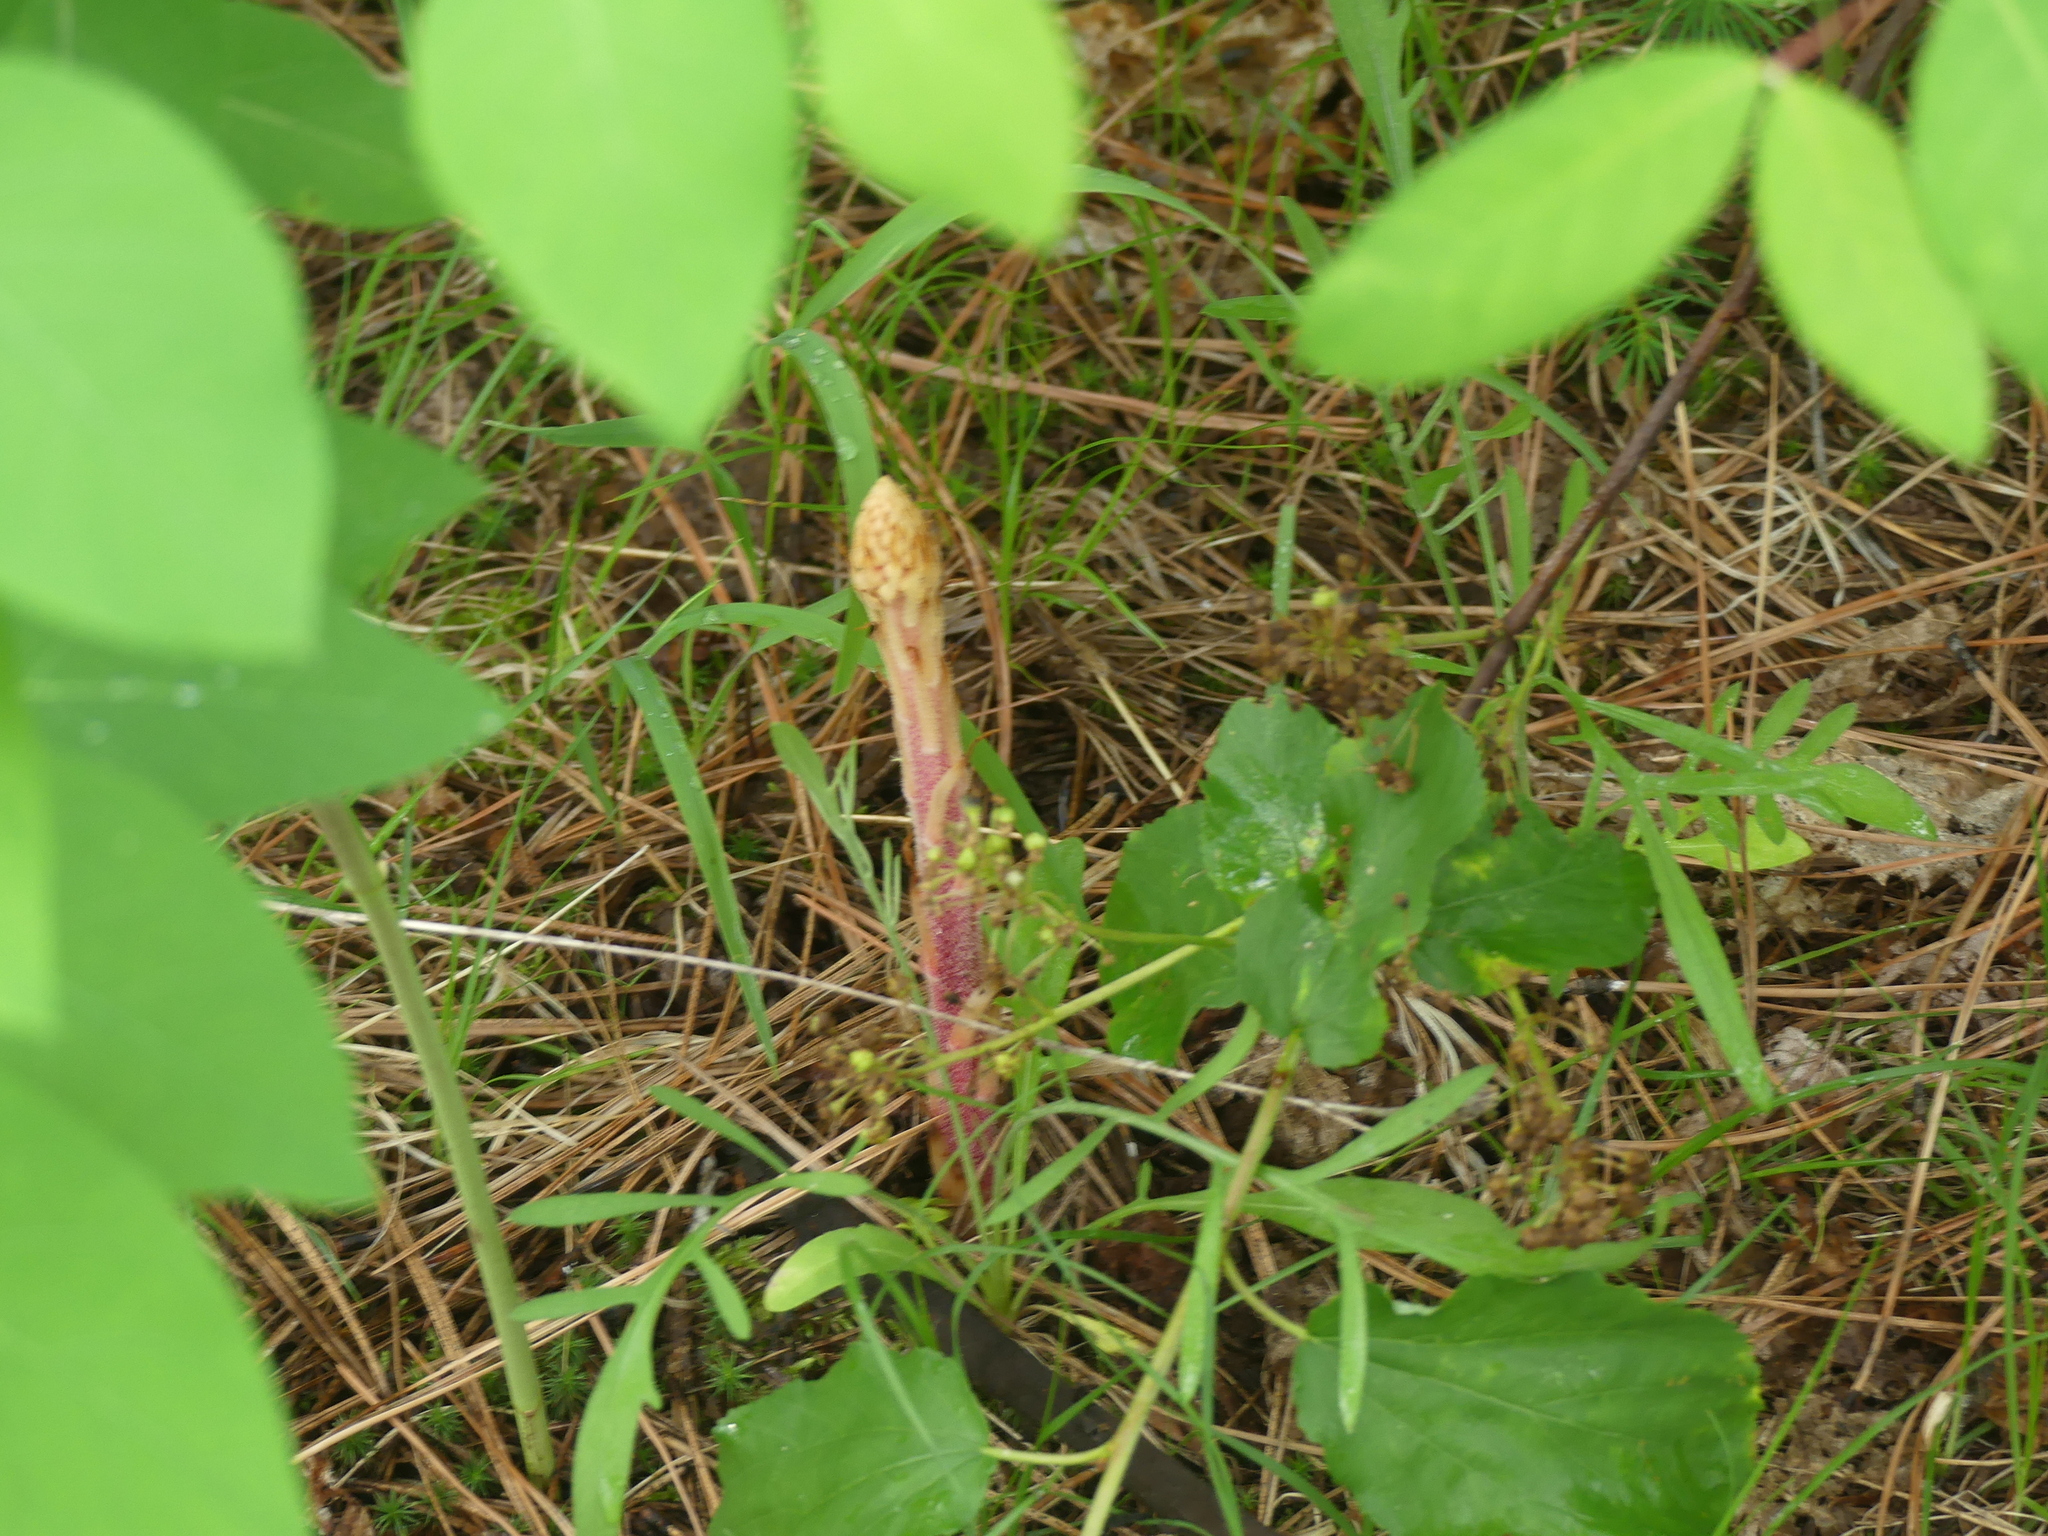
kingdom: Plantae
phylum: Tracheophyta
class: Magnoliopsida
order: Ericales
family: Ericaceae
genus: Pterospora
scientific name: Pterospora andromedea
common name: Giant bird's-nest
